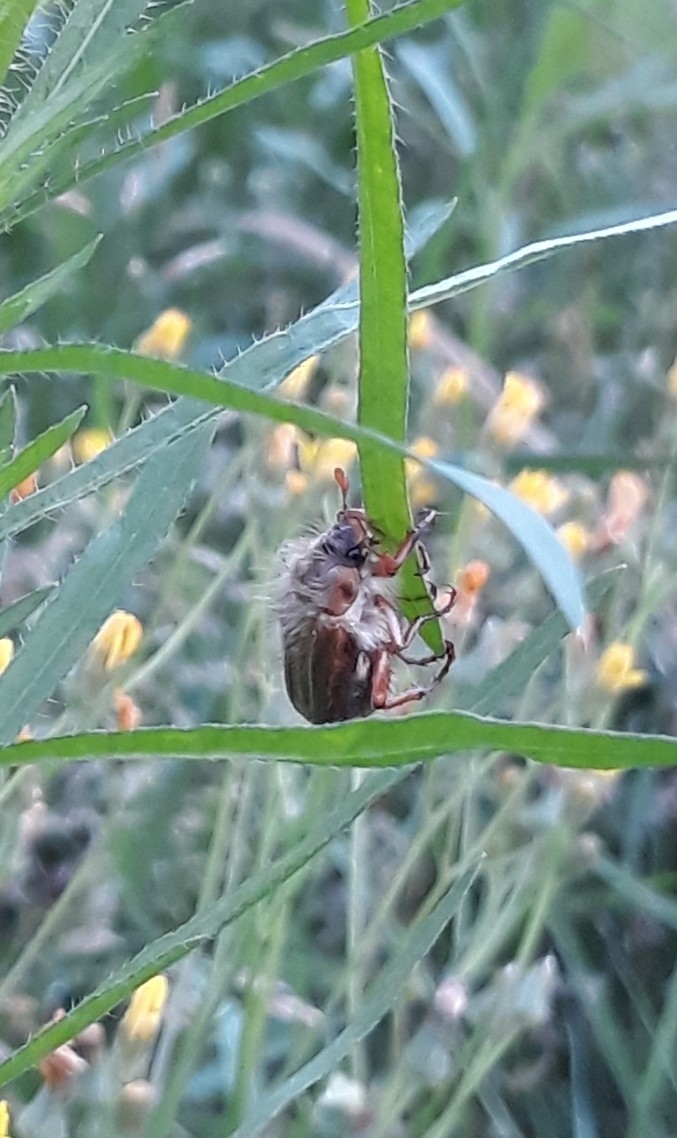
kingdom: Animalia
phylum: Arthropoda
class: Insecta
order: Coleoptera
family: Scarabaeidae
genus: Amphimallon
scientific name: Amphimallon solstitiale
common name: Summer chafer
